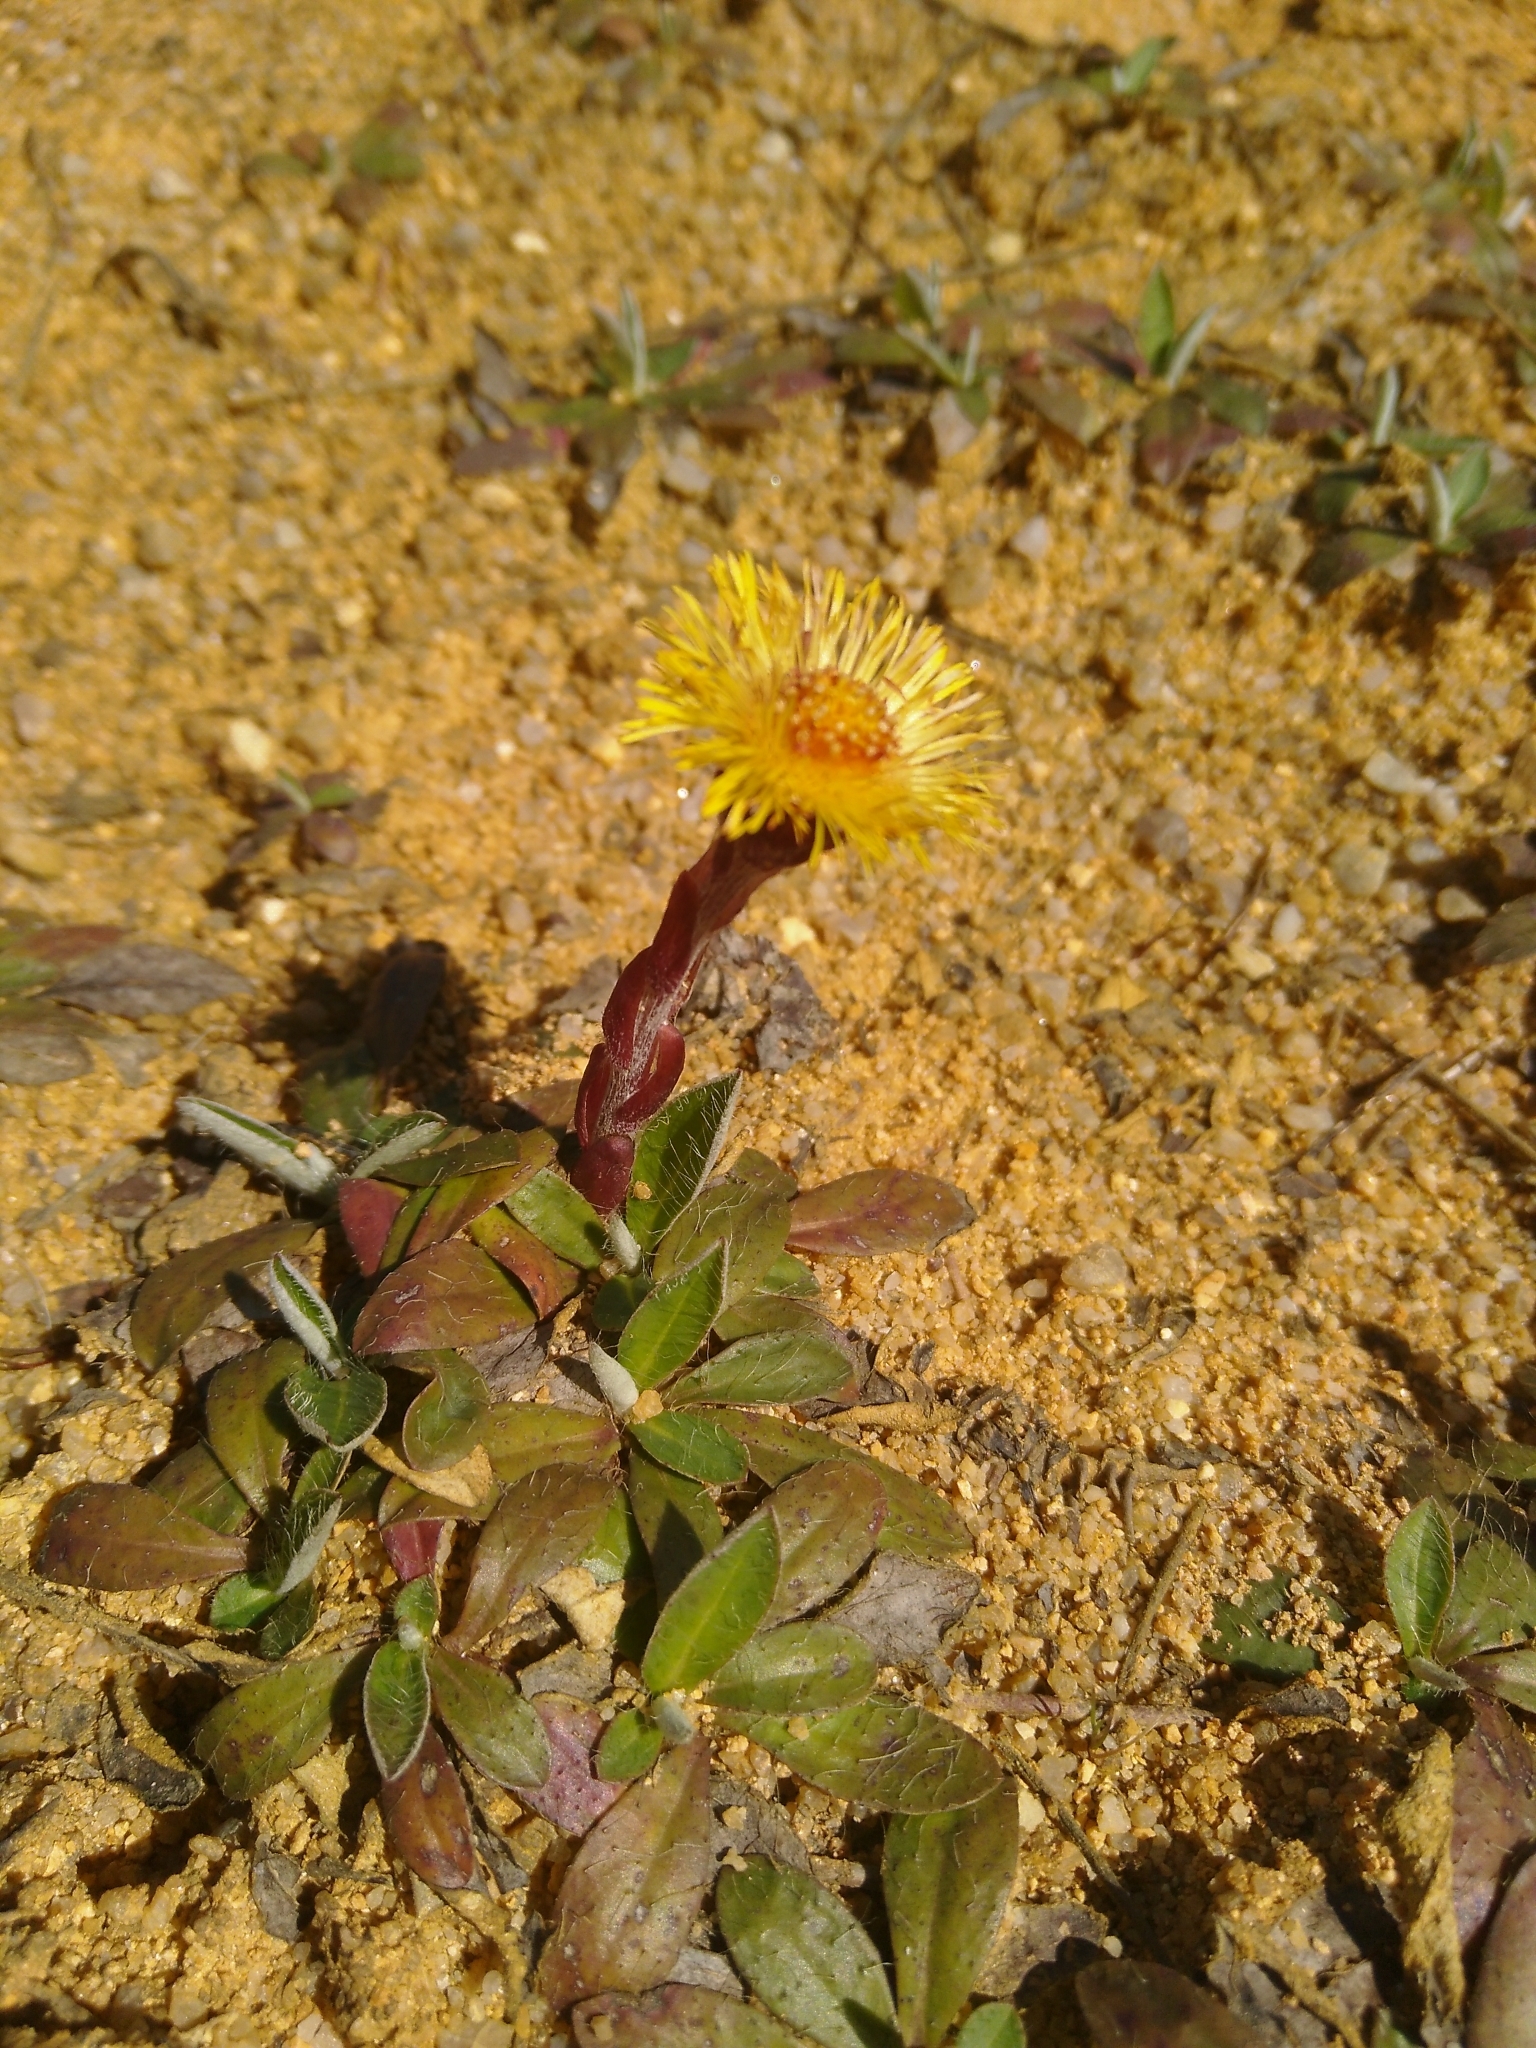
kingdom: Plantae
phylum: Tracheophyta
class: Magnoliopsida
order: Asterales
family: Asteraceae
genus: Tussilago
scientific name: Tussilago farfara
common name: Coltsfoot
